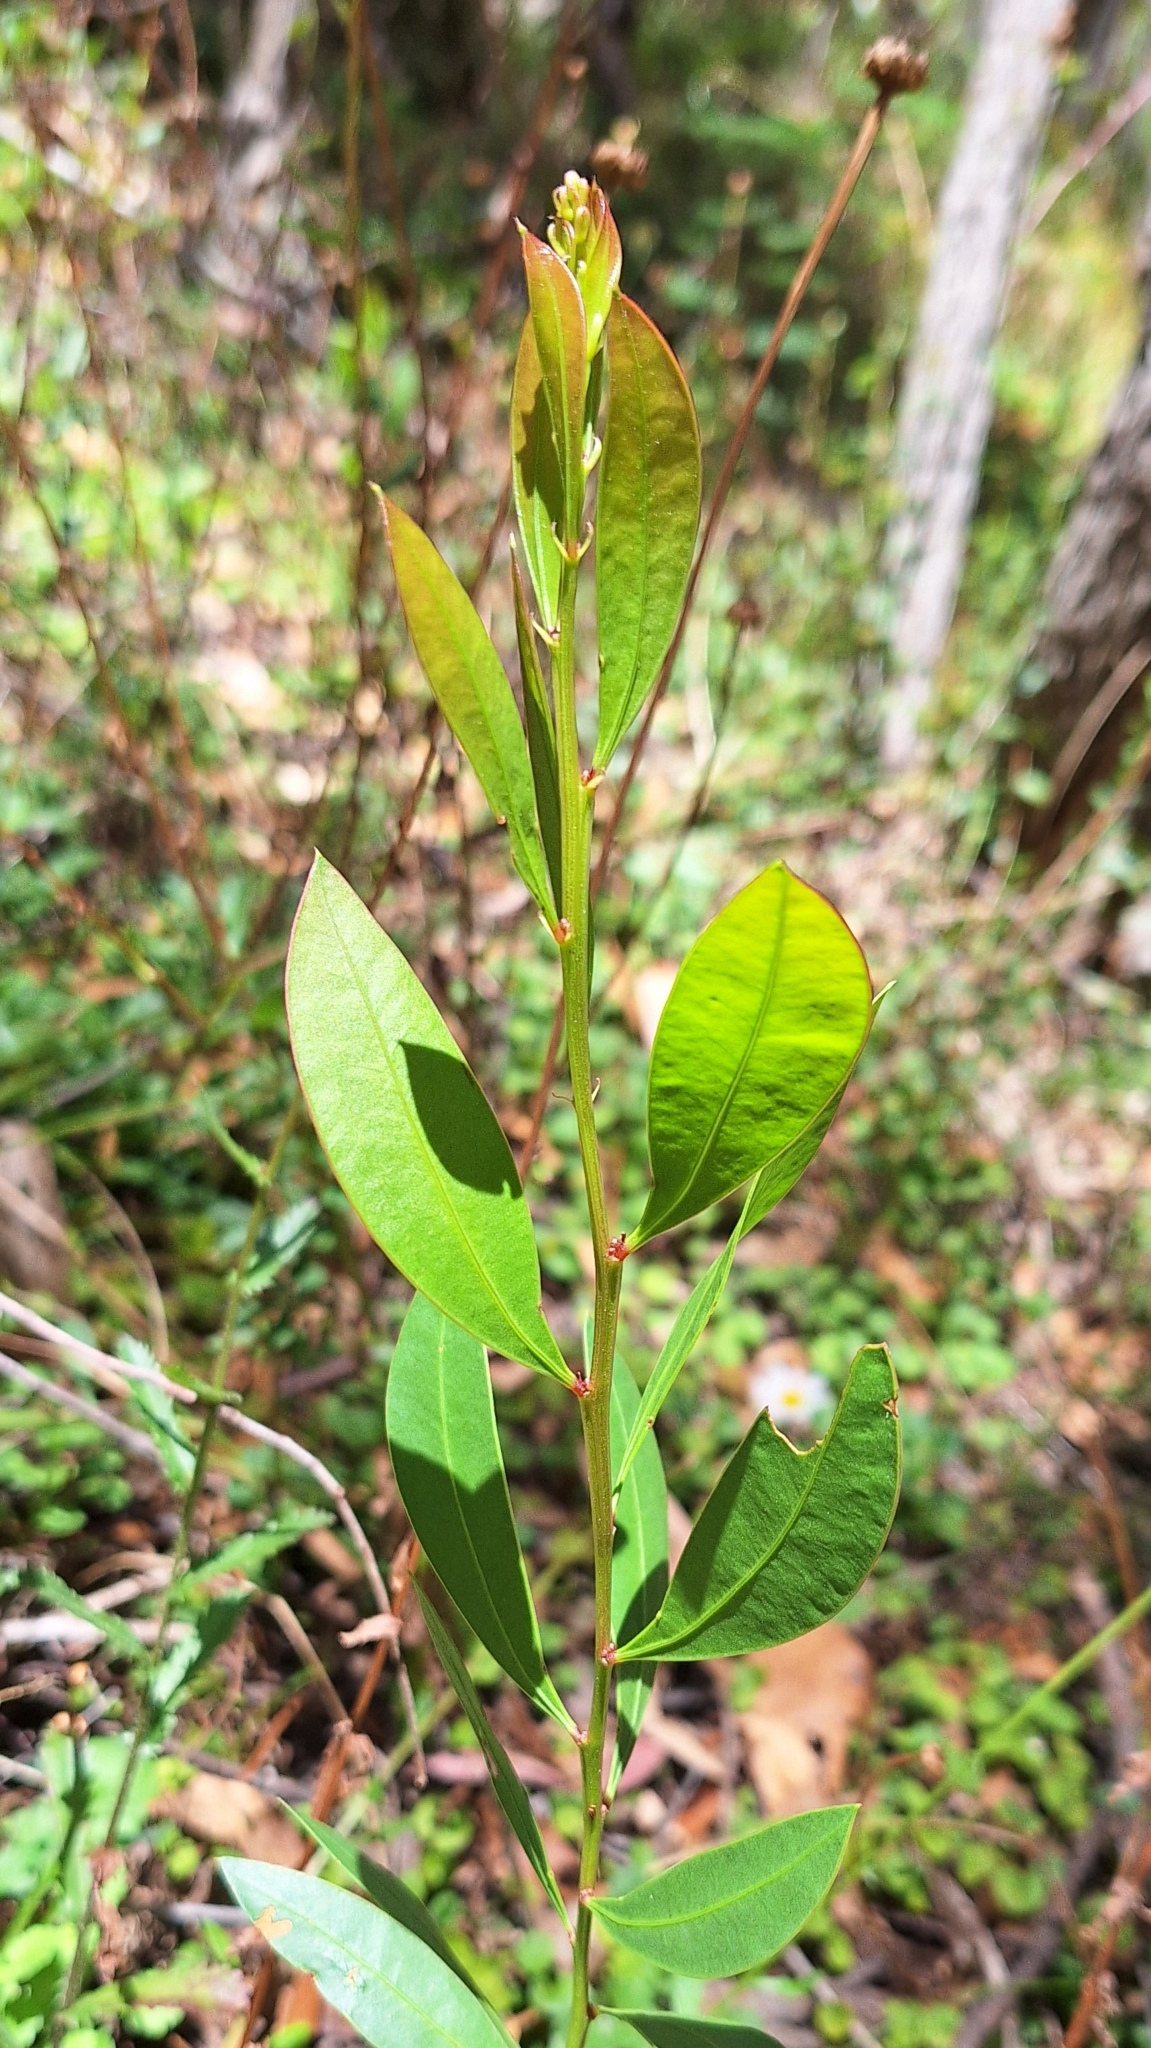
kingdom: Plantae
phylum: Tracheophyta
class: Magnoliopsida
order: Fabales
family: Fabaceae
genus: Acacia
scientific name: Acacia myrtifolia
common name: Myrtle wattle
